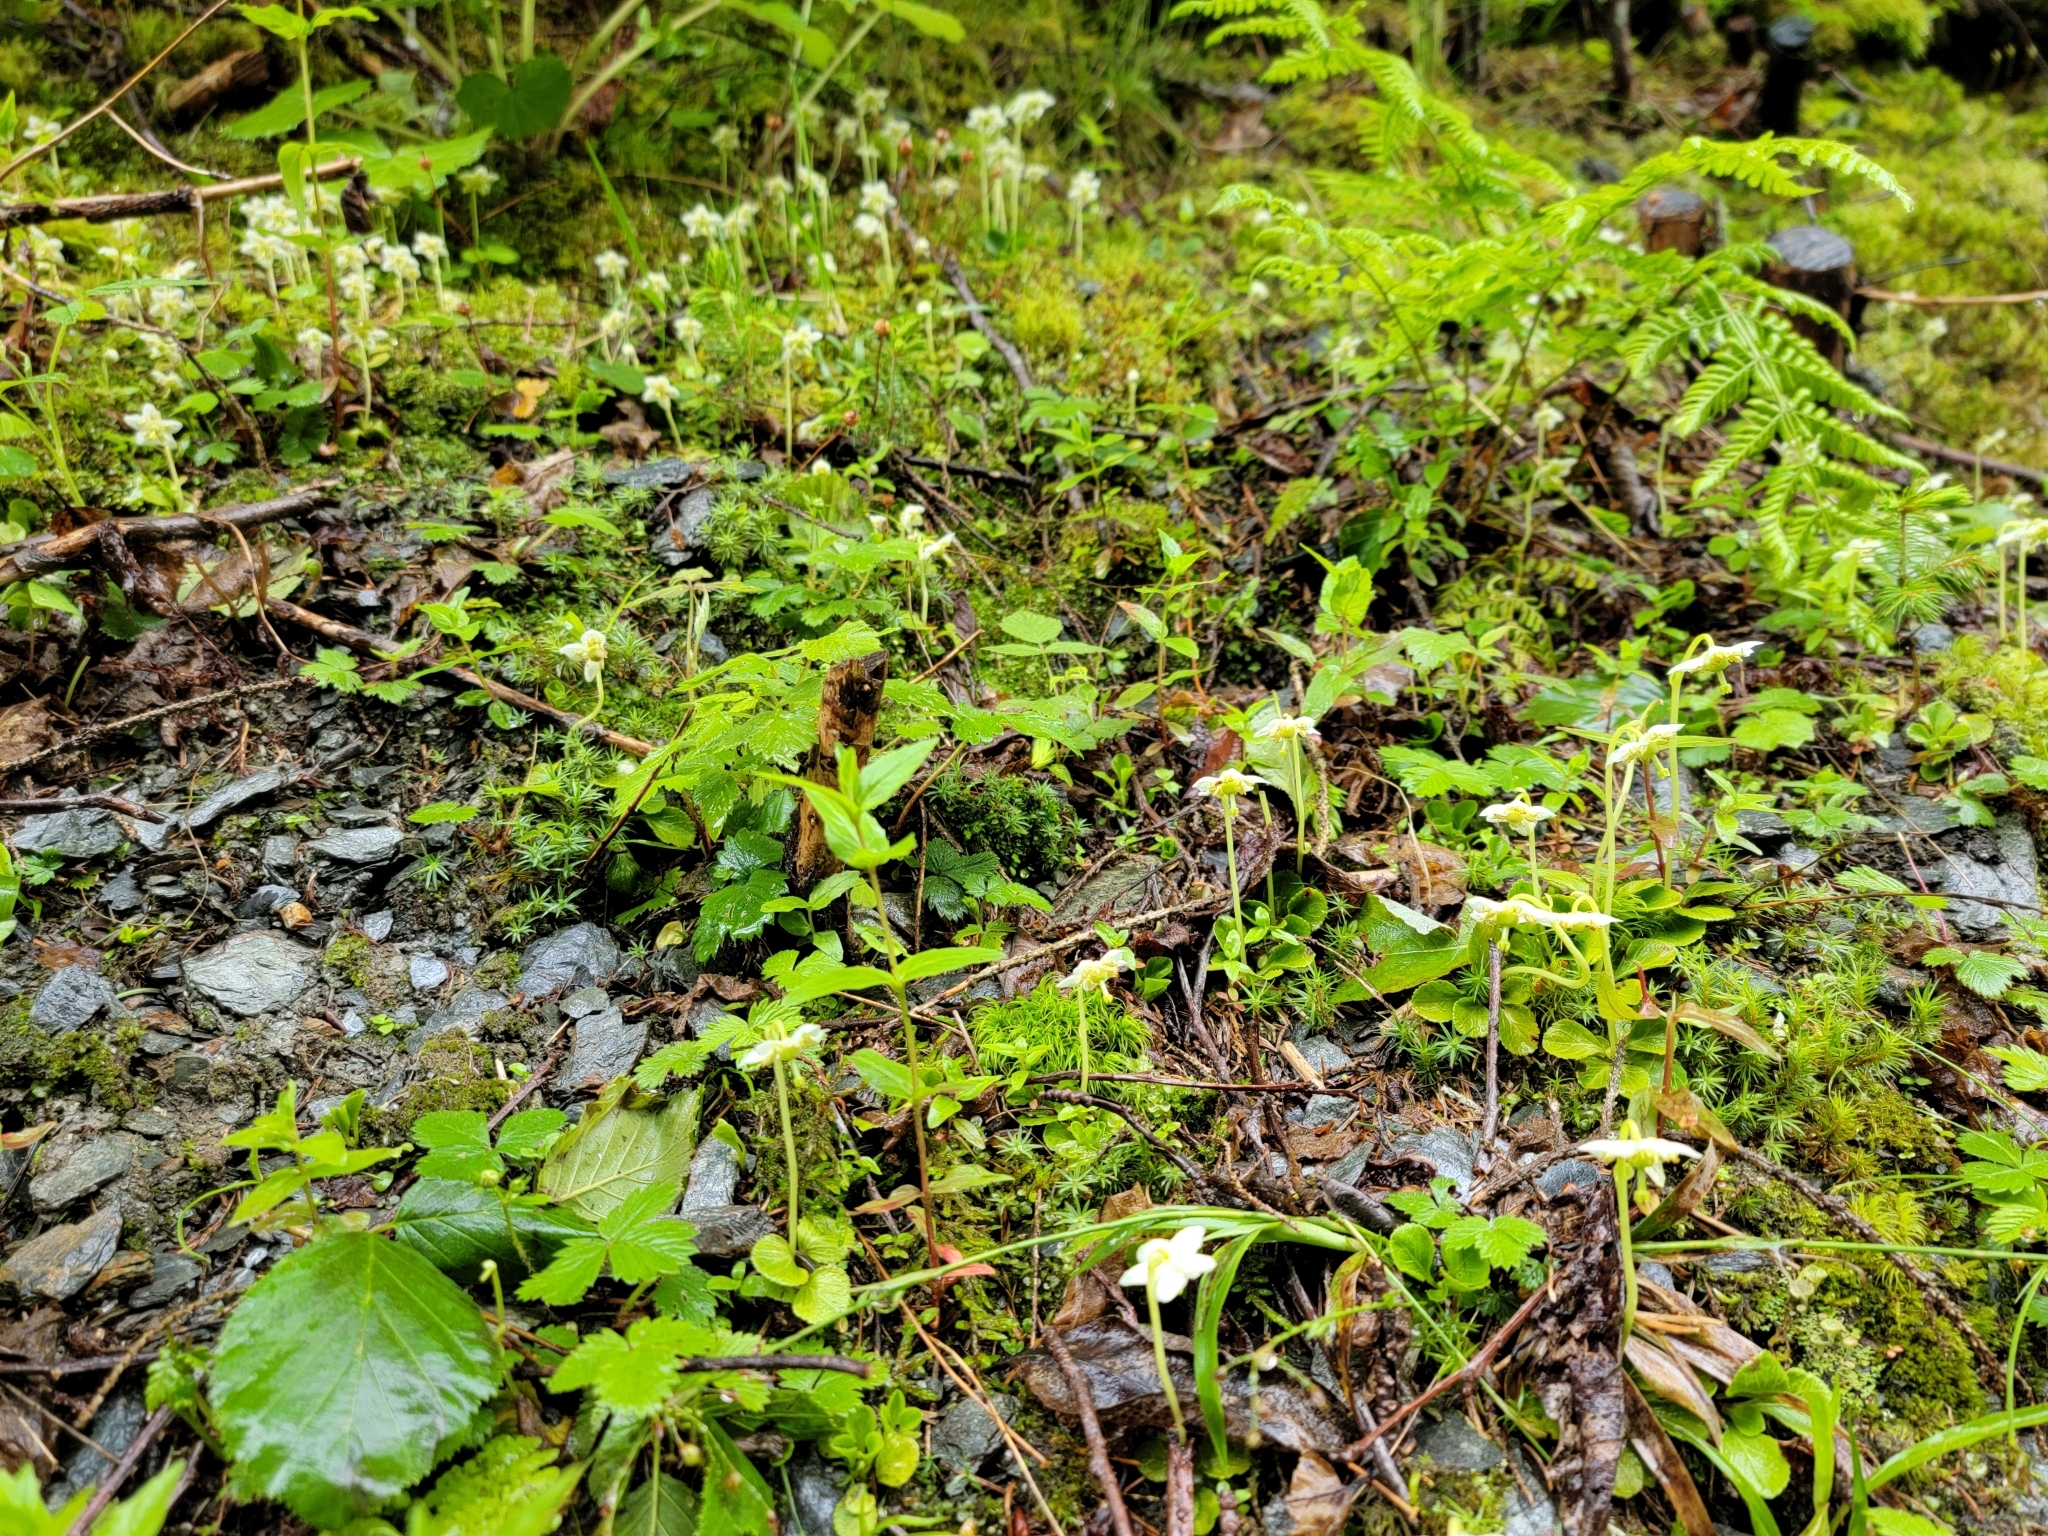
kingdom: Plantae
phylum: Tracheophyta
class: Magnoliopsida
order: Ericales
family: Ericaceae
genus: Moneses
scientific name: Moneses uniflora
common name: One-flowered wintergreen
